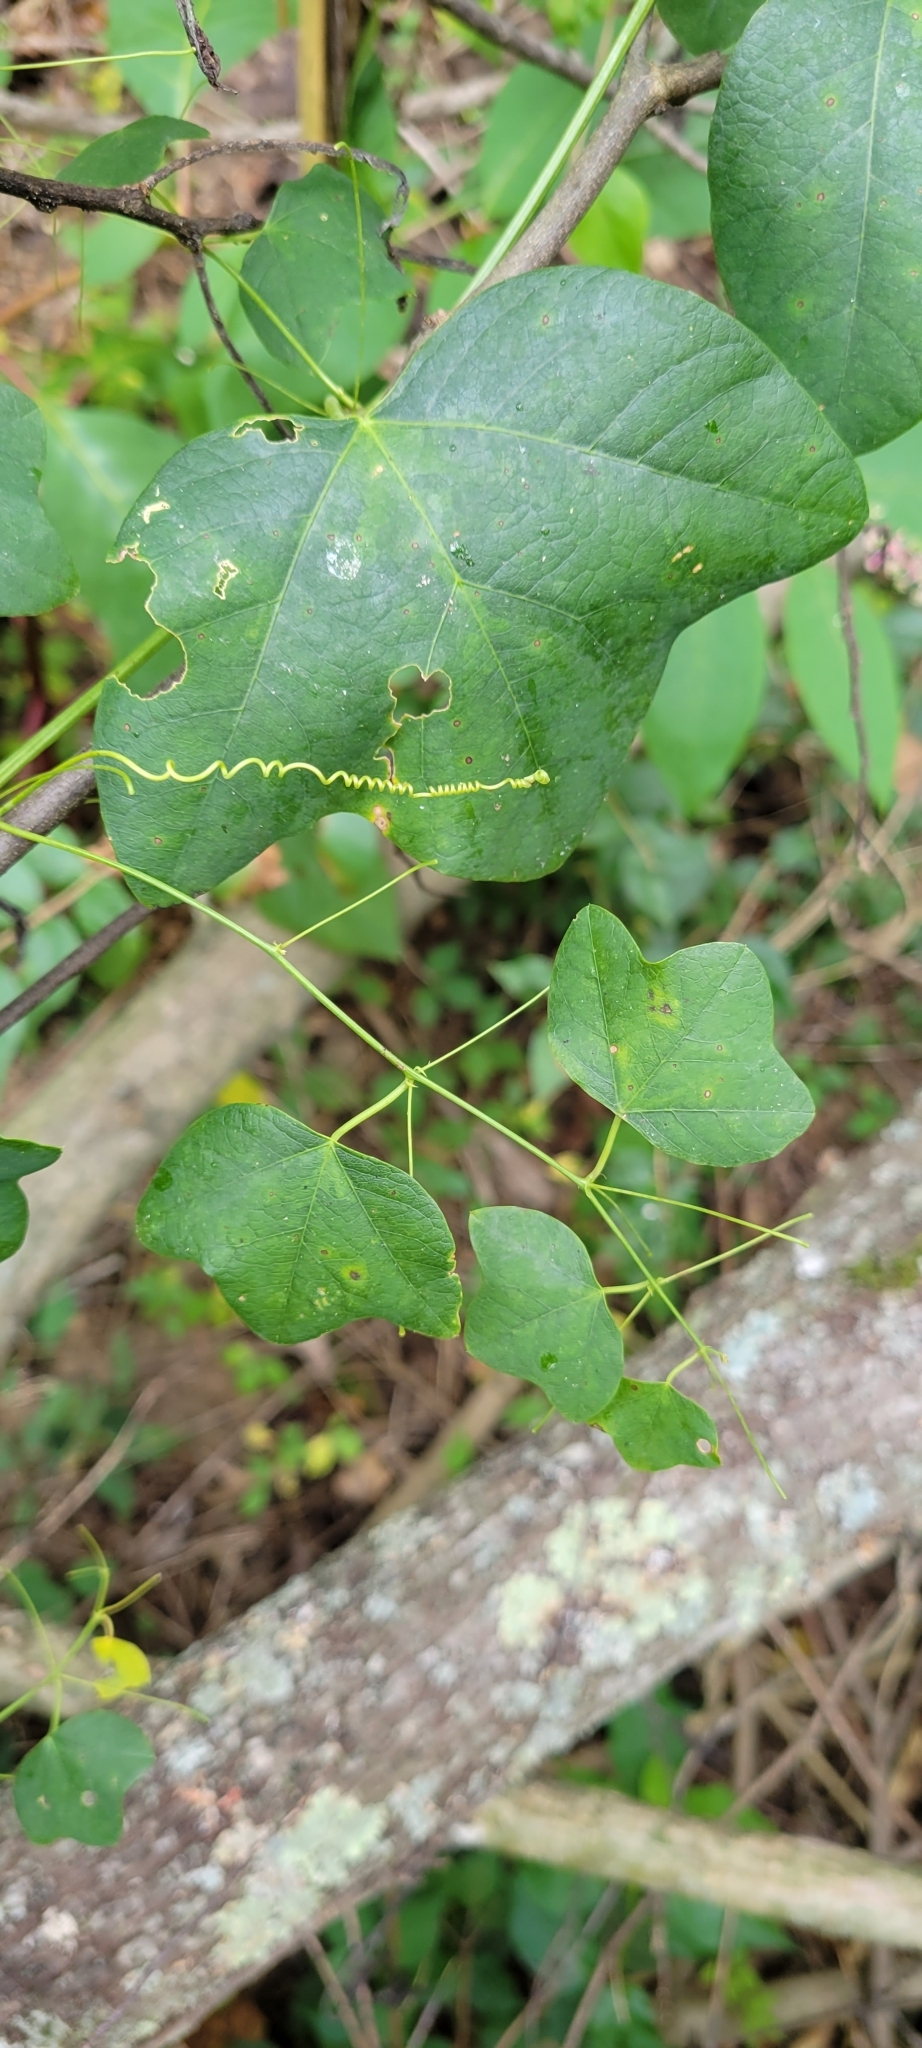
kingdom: Plantae
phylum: Tracheophyta
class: Magnoliopsida
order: Malpighiales
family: Passifloraceae
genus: Passiflora
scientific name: Passiflora lutea
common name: Yellow passionflower
